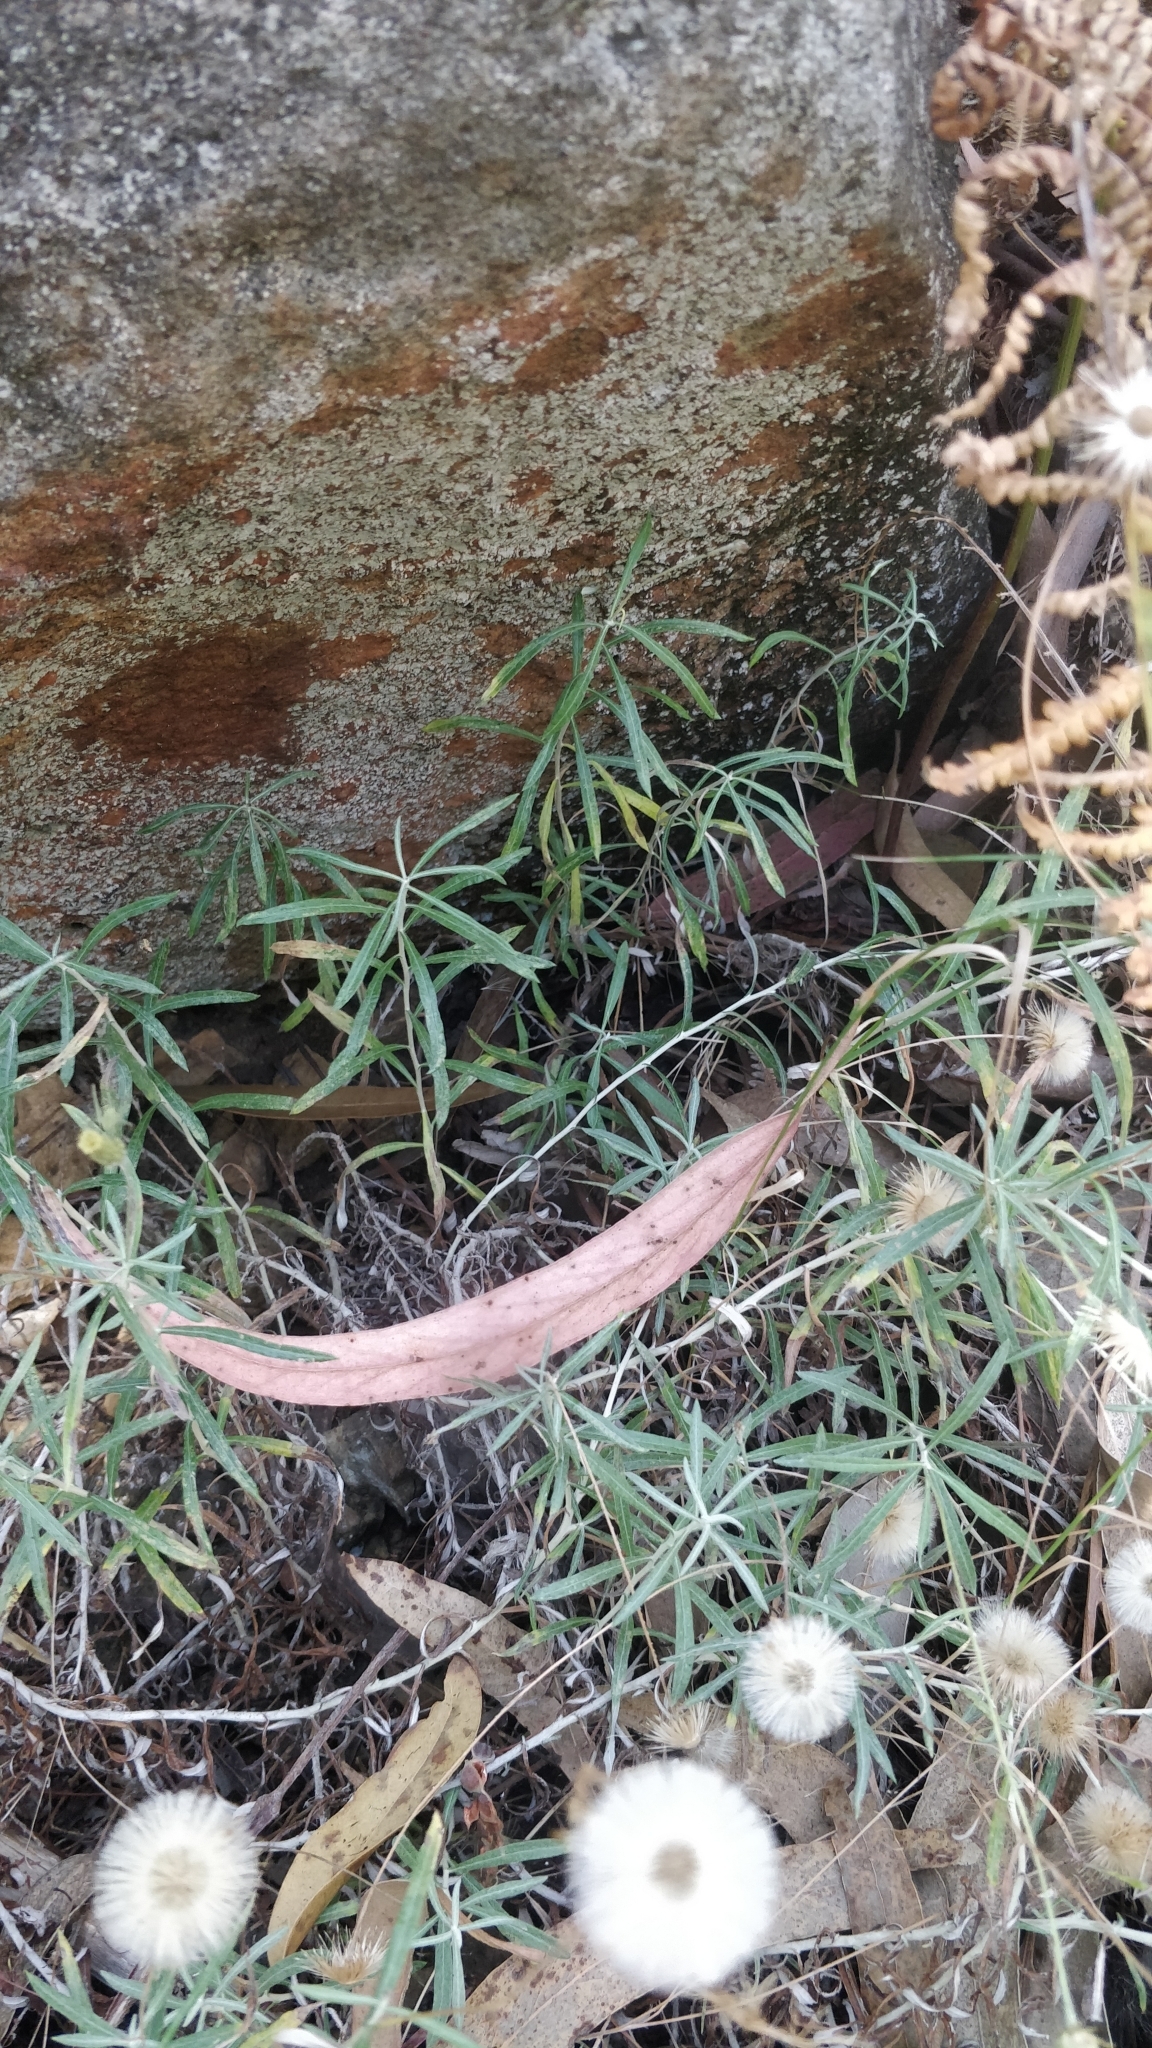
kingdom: Plantae
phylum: Tracheophyta
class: Magnoliopsida
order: Asterales
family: Asteraceae
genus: Phagnalon
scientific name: Phagnalon saxatile
